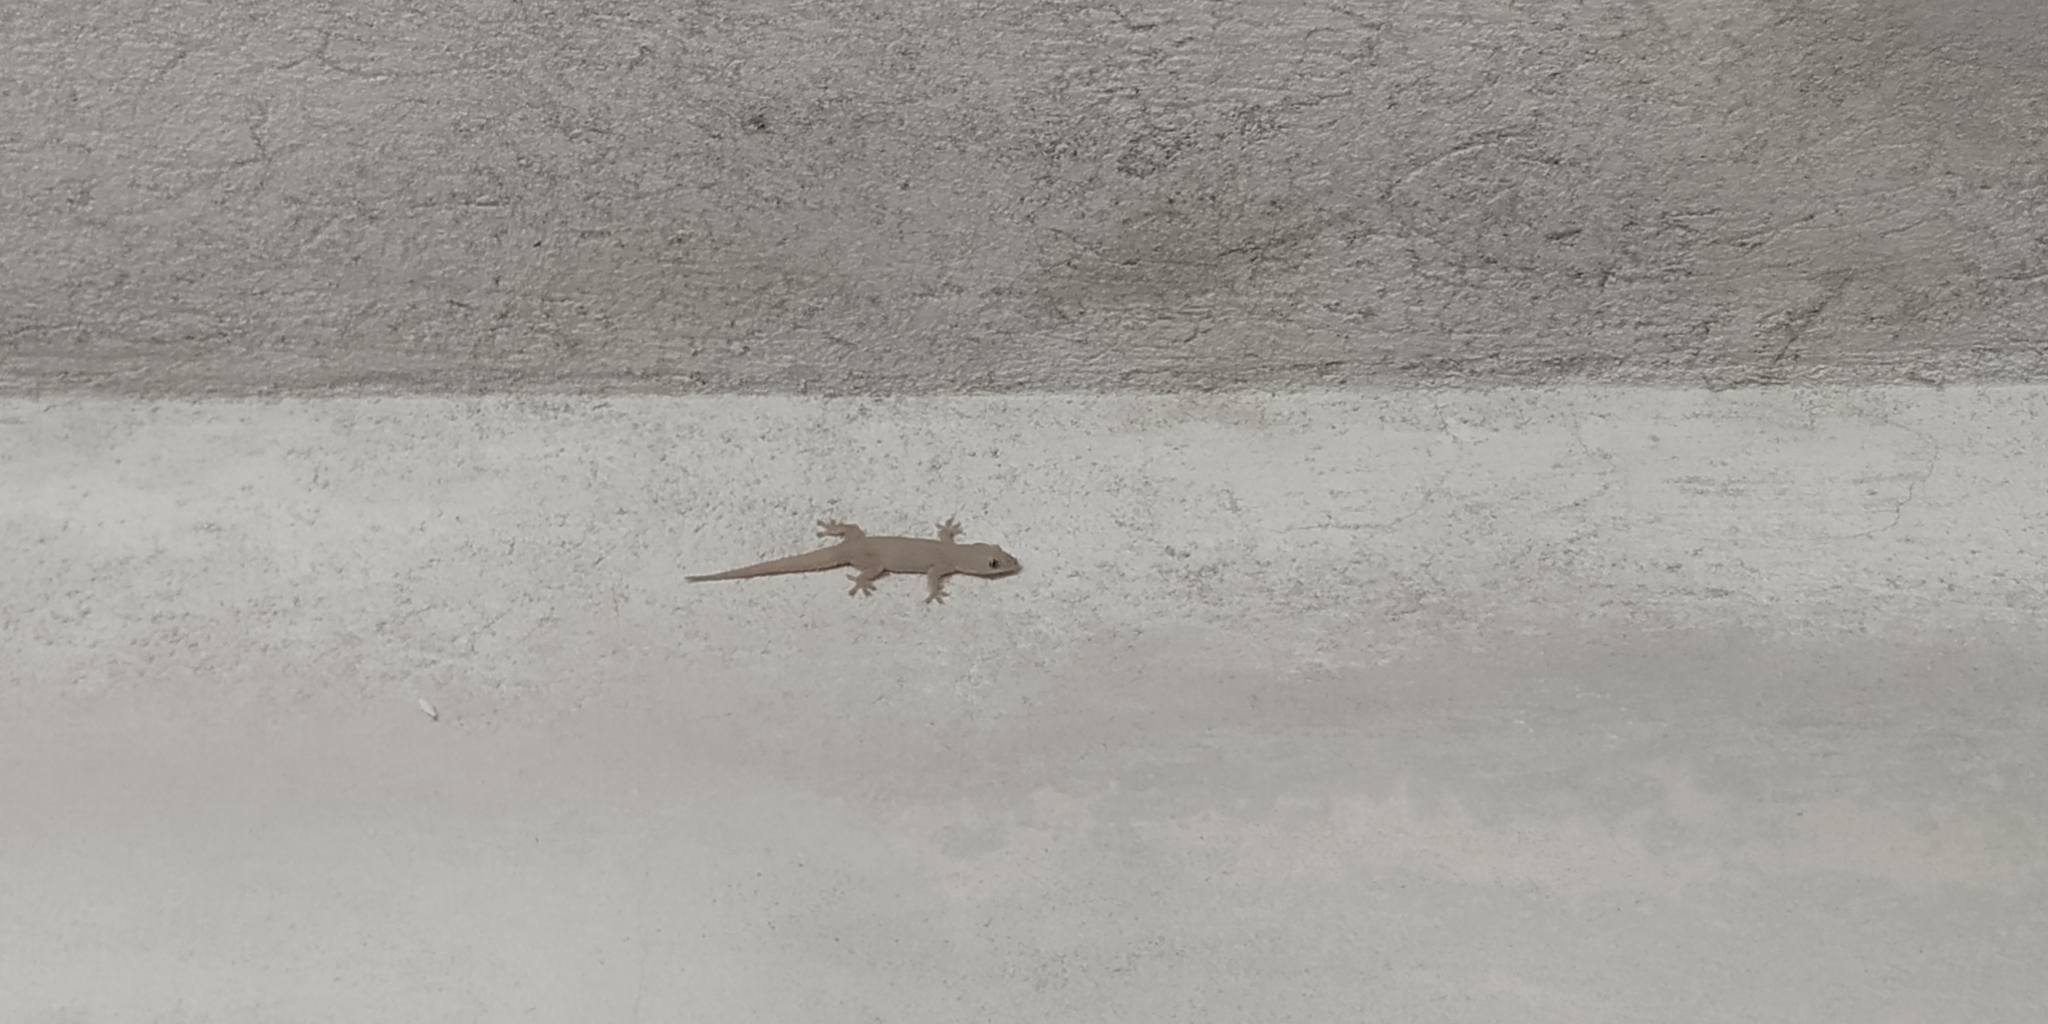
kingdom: Animalia
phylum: Chordata
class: Squamata
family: Gekkonidae
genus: Hemidactylus
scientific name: Hemidactylus frenatus
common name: Common house gecko
